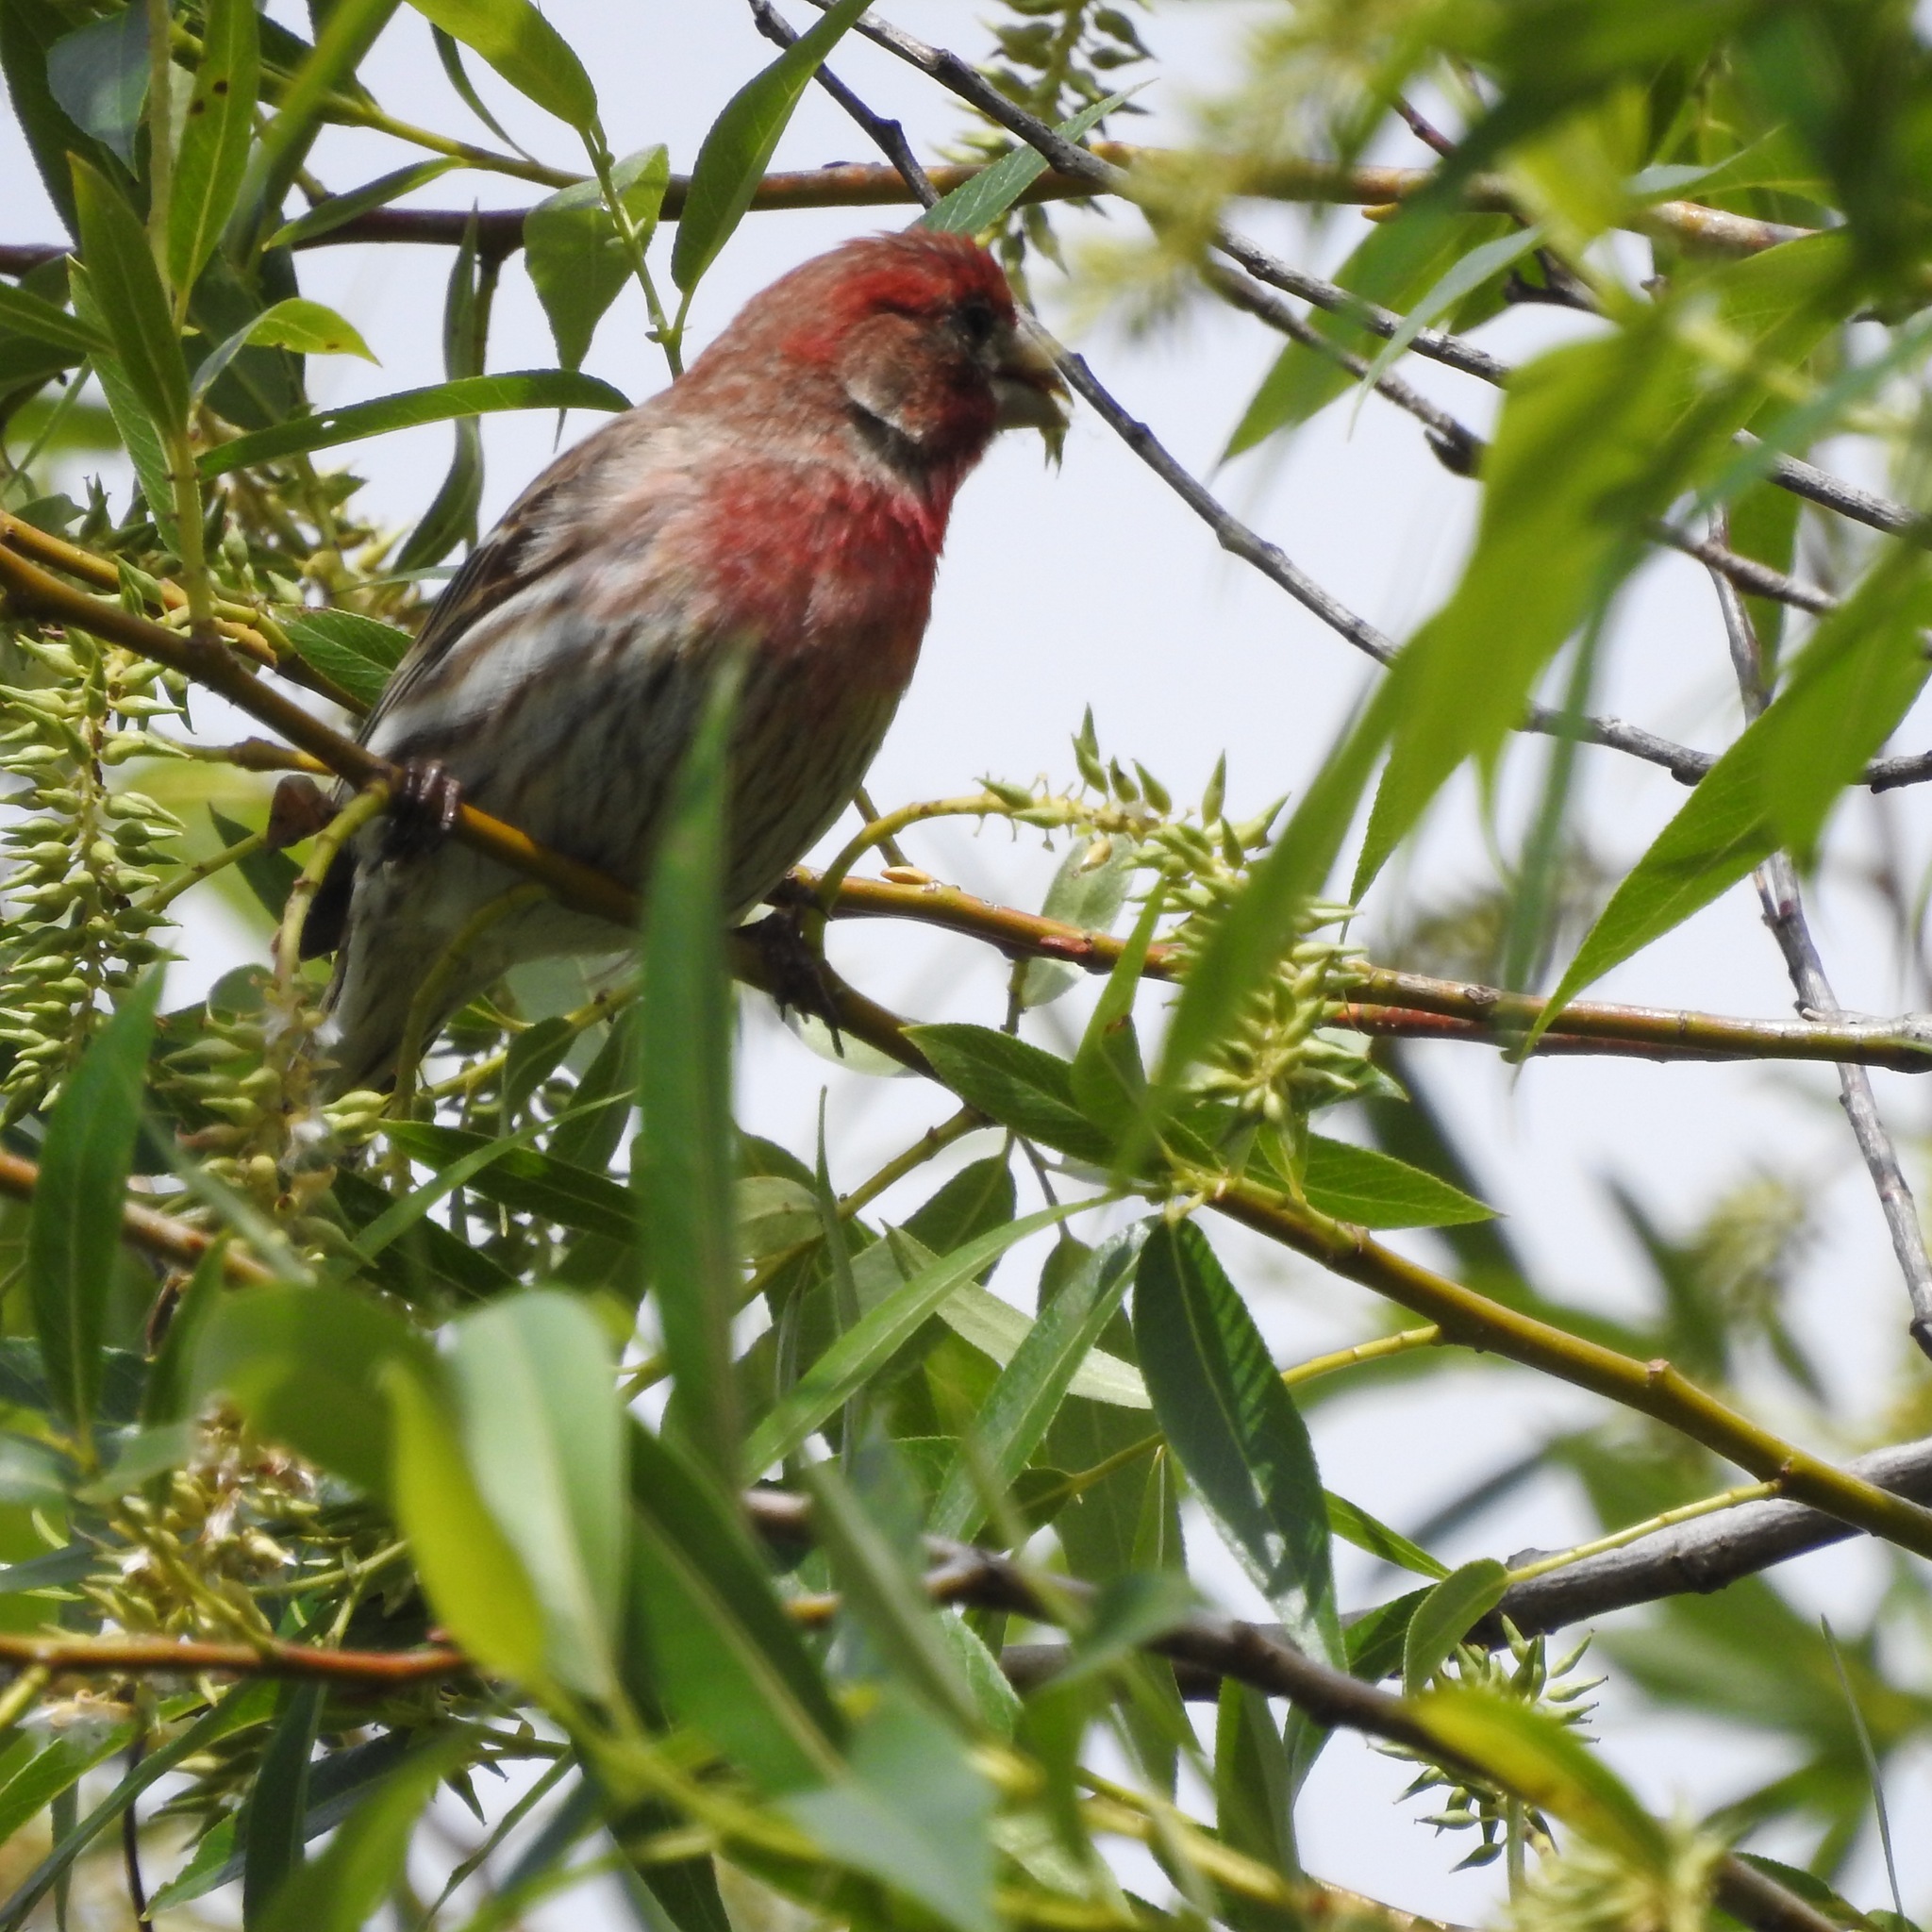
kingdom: Animalia
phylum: Chordata
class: Aves
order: Passeriformes
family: Fringillidae
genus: Haemorhous
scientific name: Haemorhous mexicanus
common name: House finch
